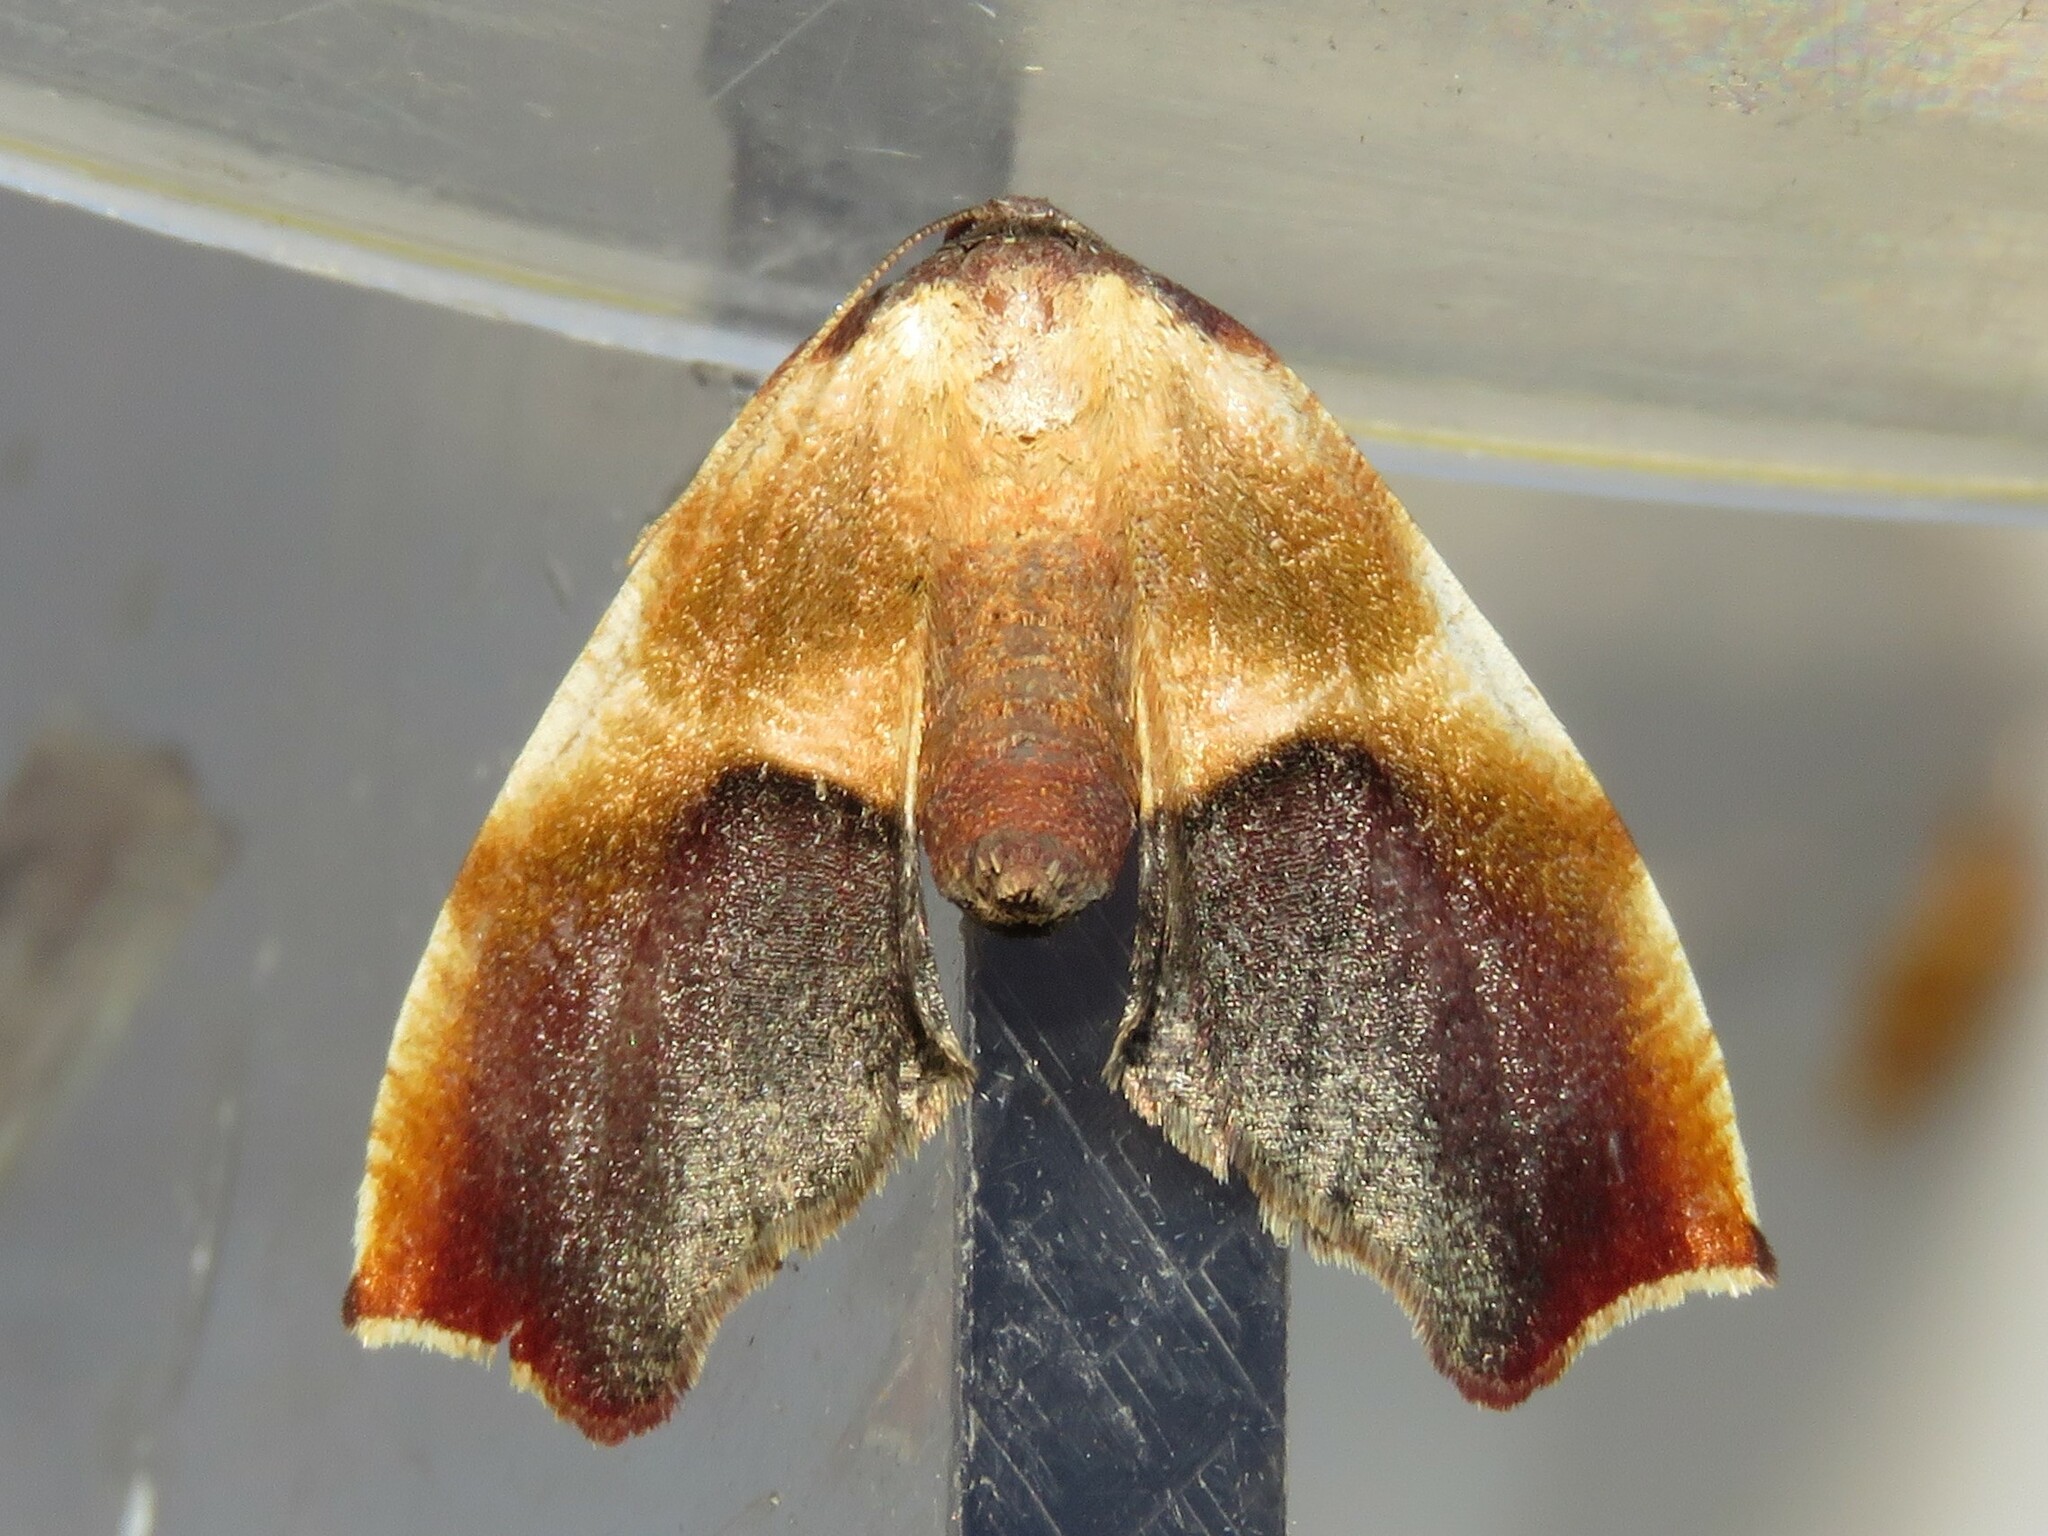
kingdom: Animalia
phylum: Arthropoda
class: Insecta
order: Lepidoptera
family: Geometridae
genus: Plagodis
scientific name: Plagodis kuetzingi
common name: Purple plagodis
